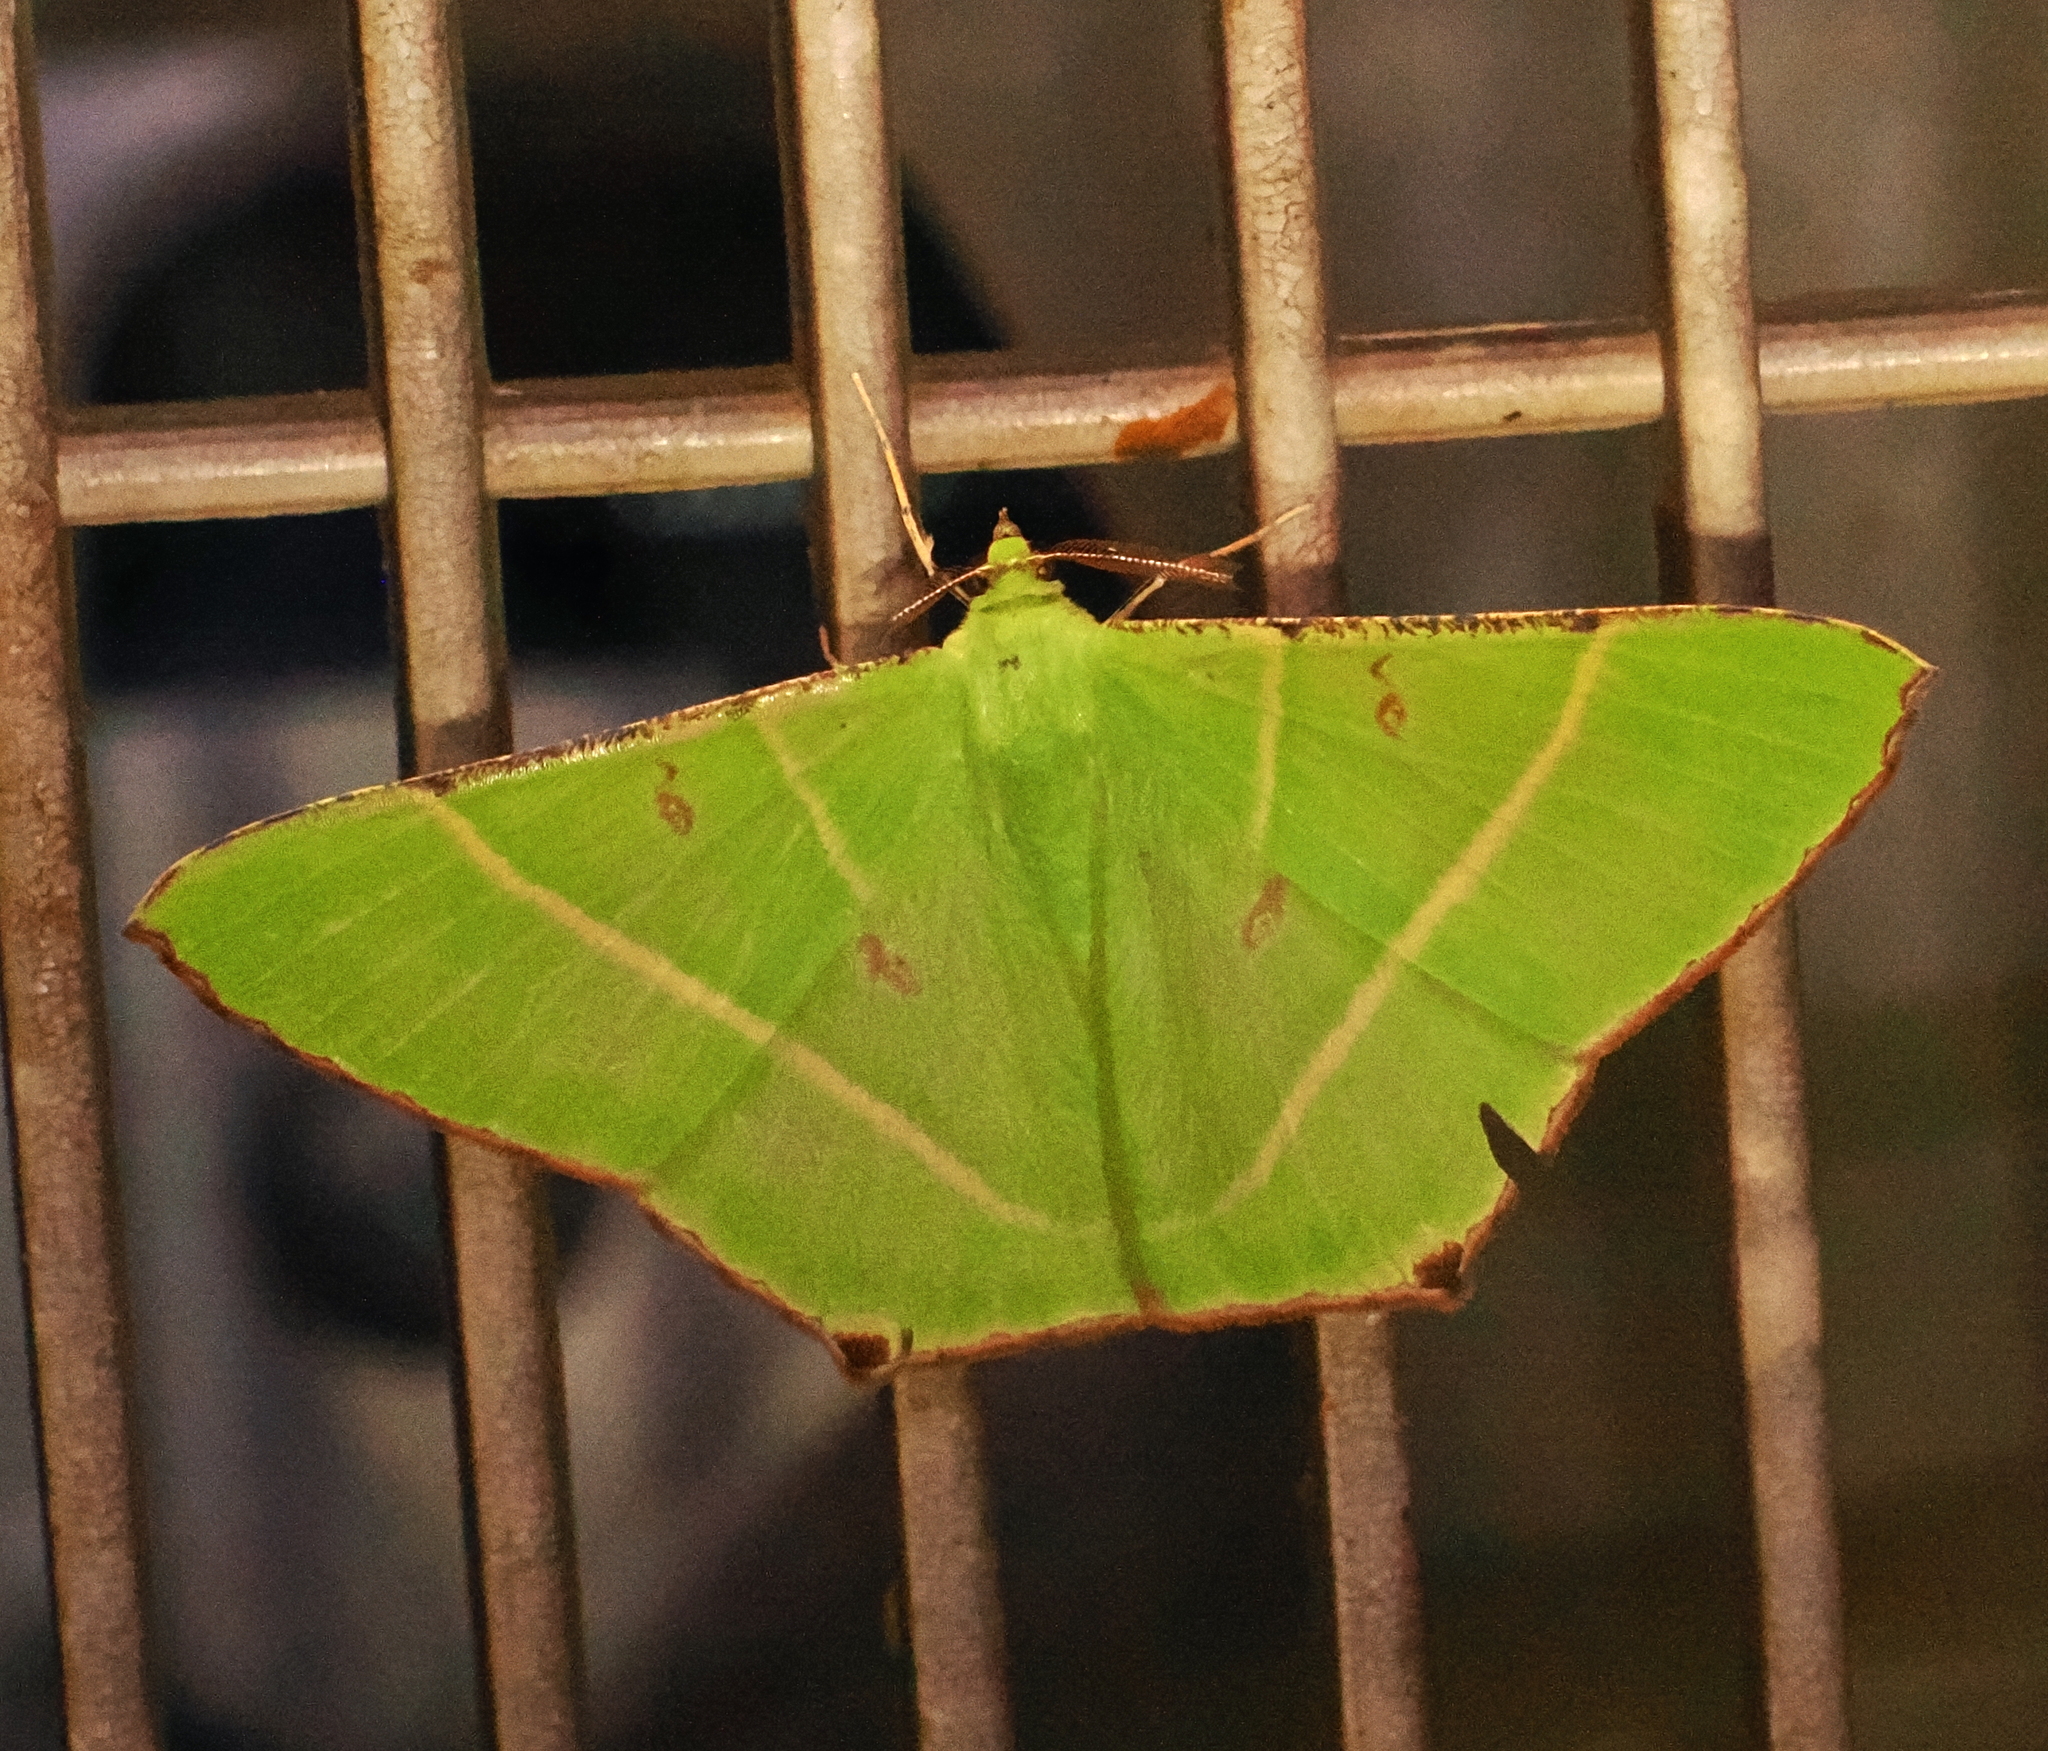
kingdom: Animalia
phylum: Arthropoda
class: Insecta
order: Lepidoptera
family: Geometridae
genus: Ornithospila
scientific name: Ornithospila lineata
